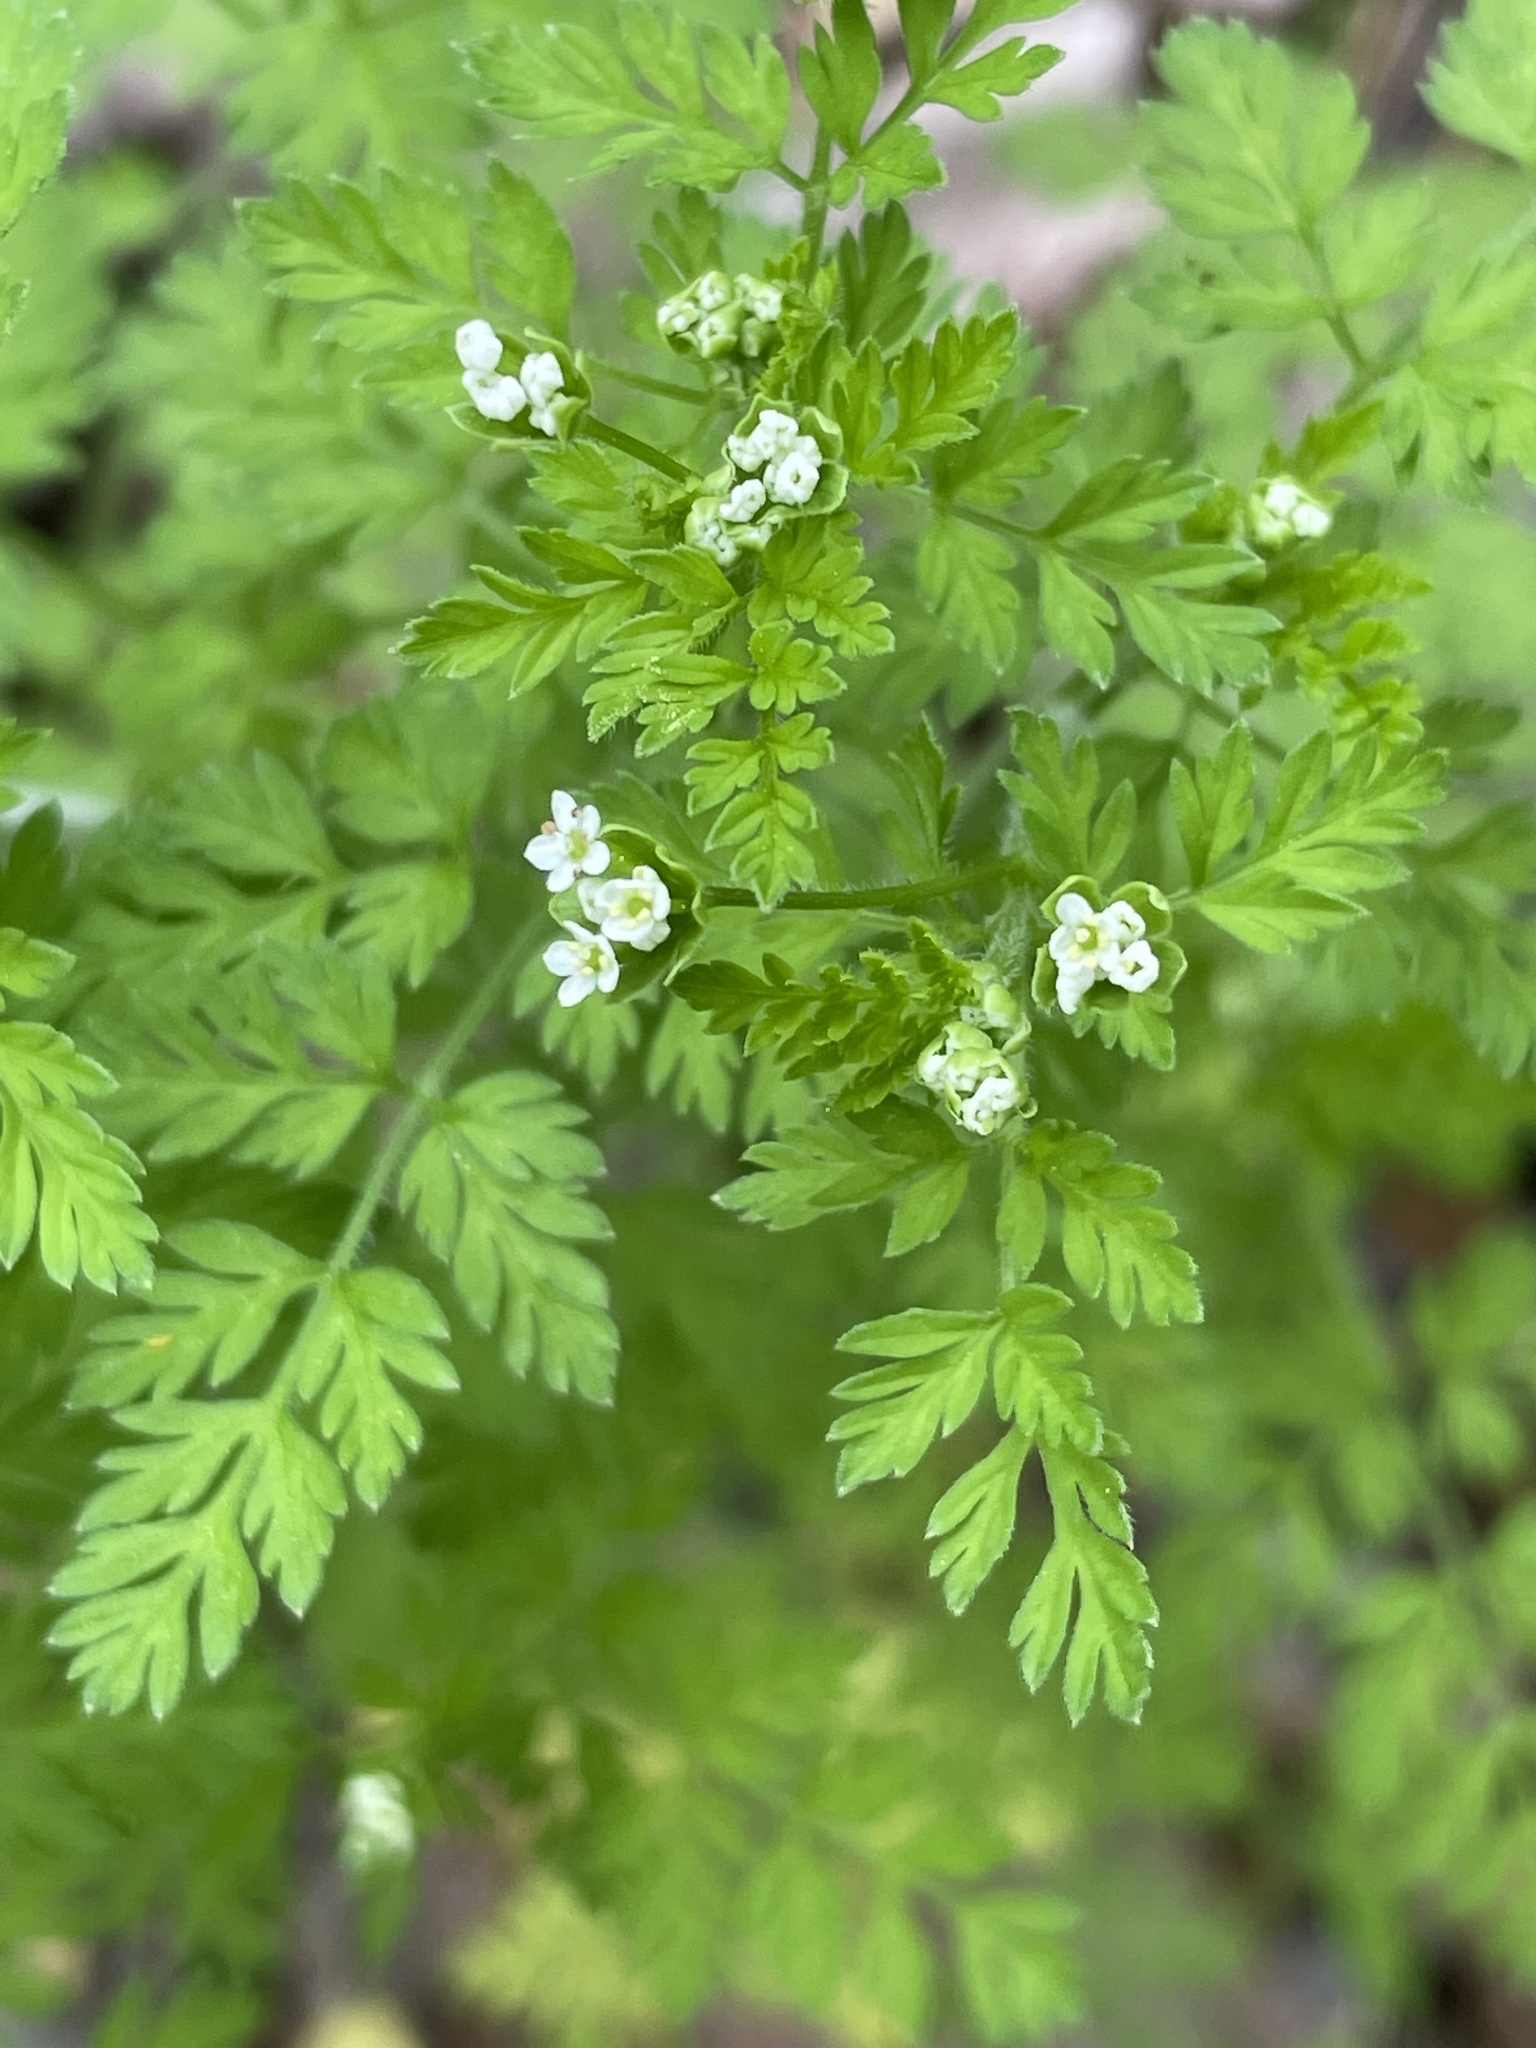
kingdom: Plantae
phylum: Tracheophyta
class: Magnoliopsida
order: Apiales
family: Apiaceae
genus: Chaerophyllum
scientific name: Chaerophyllum tainturieri
